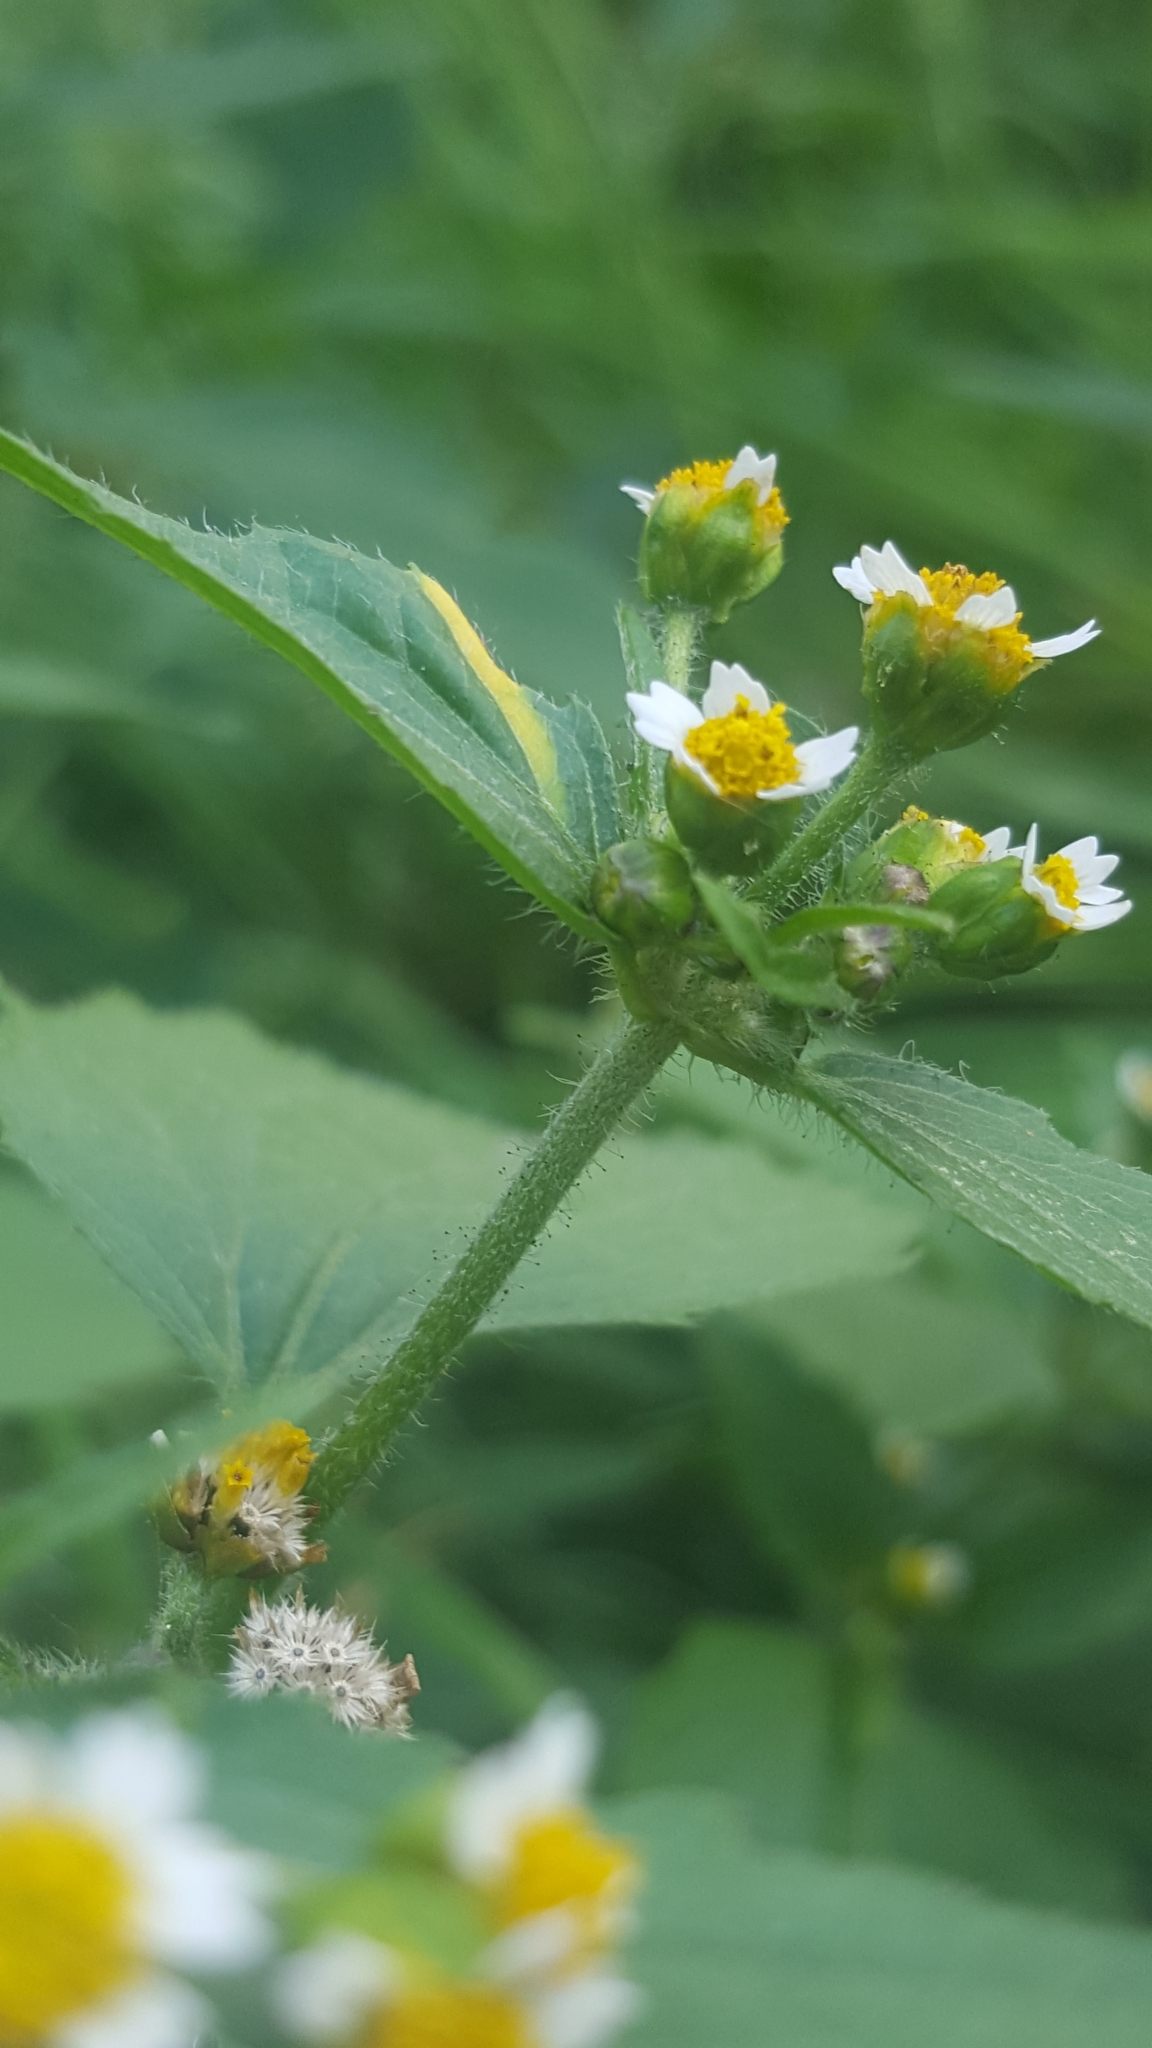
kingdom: Plantae
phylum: Tracheophyta
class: Magnoliopsida
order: Asterales
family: Asteraceae
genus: Galinsoga
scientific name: Galinsoga quadriradiata
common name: Shaggy soldier
